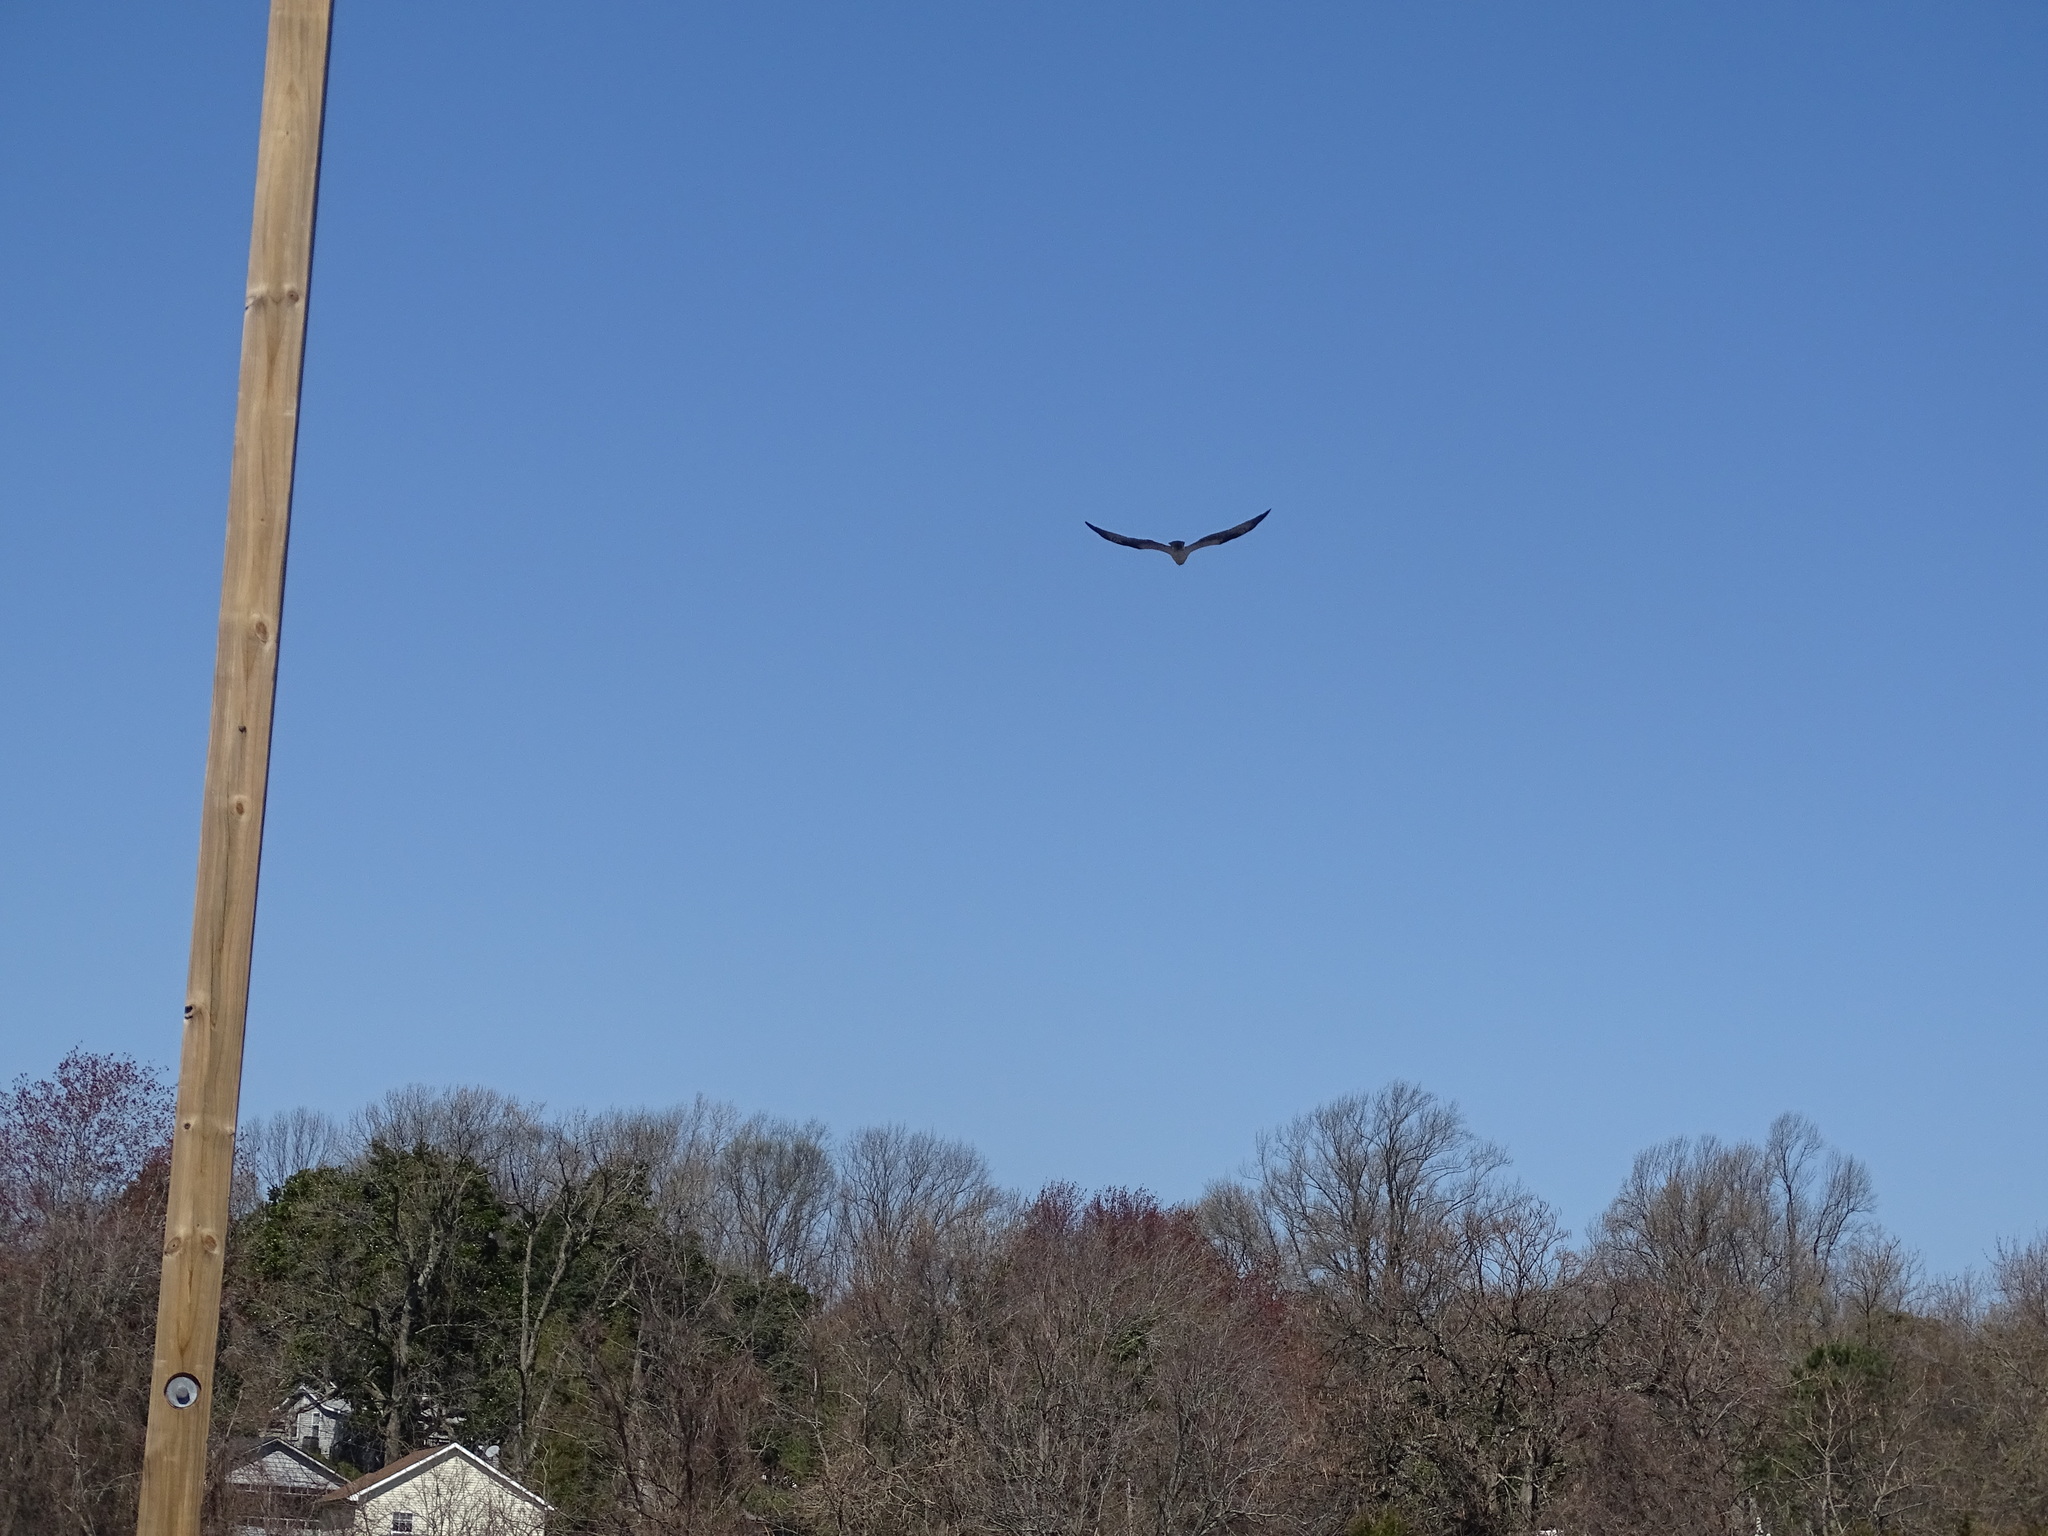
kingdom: Animalia
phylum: Chordata
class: Aves
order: Accipitriformes
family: Pandionidae
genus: Pandion
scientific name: Pandion haliaetus
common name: Osprey
